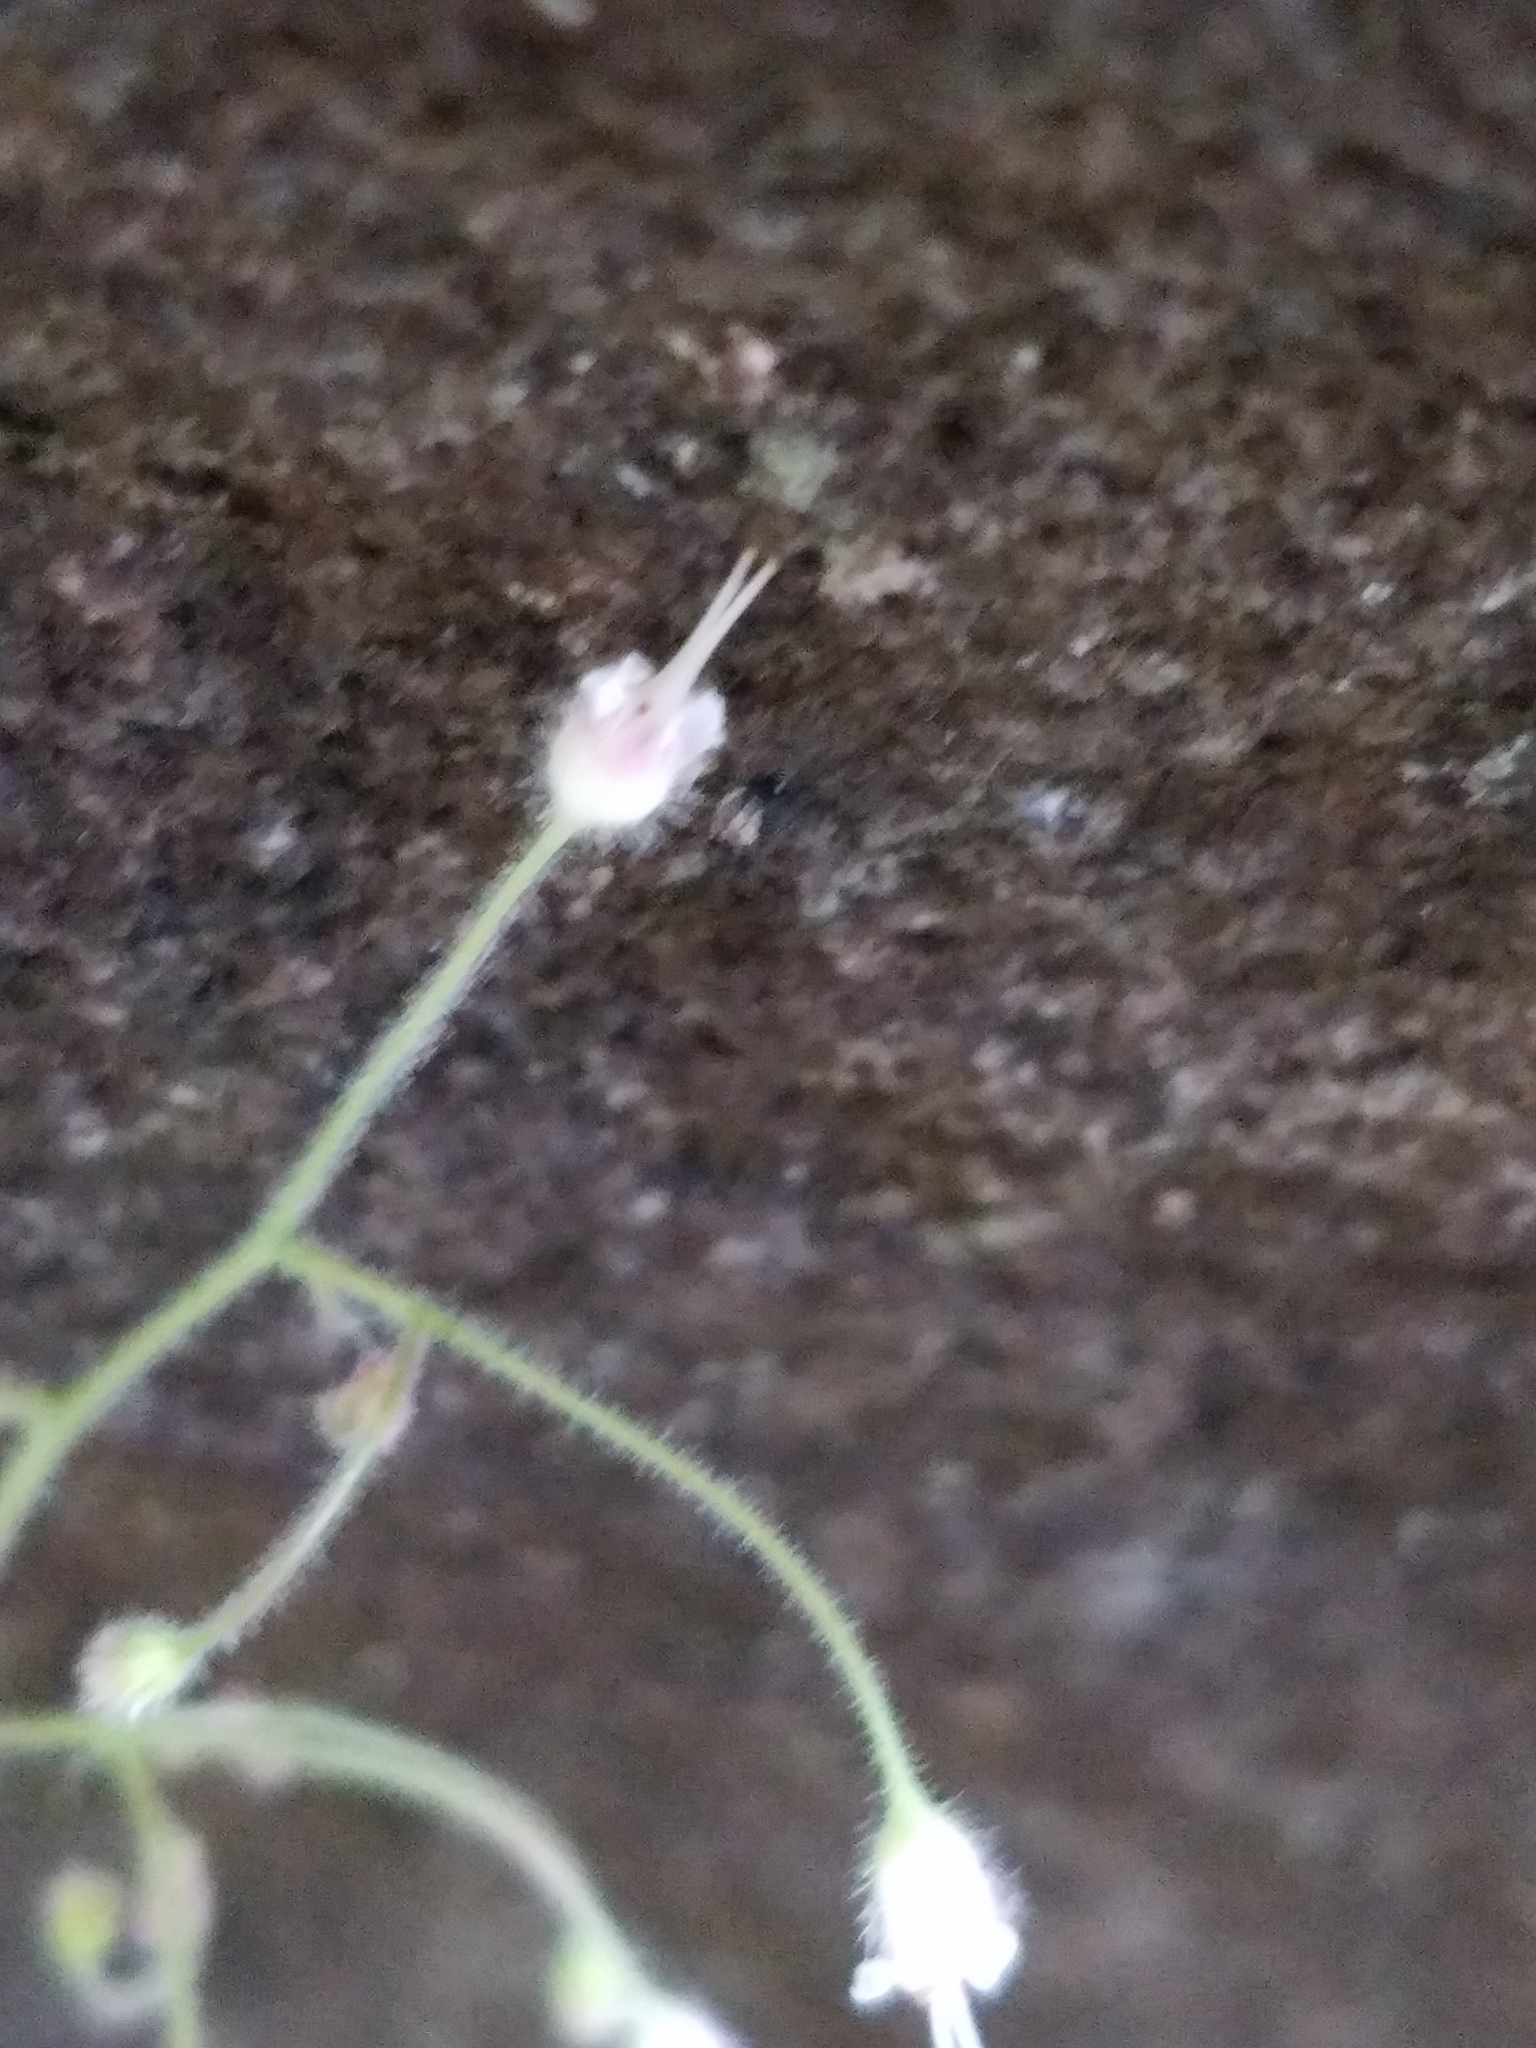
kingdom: Plantae
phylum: Tracheophyta
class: Magnoliopsida
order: Saxifragales
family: Saxifragaceae
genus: Heuchera
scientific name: Heuchera parviflora
